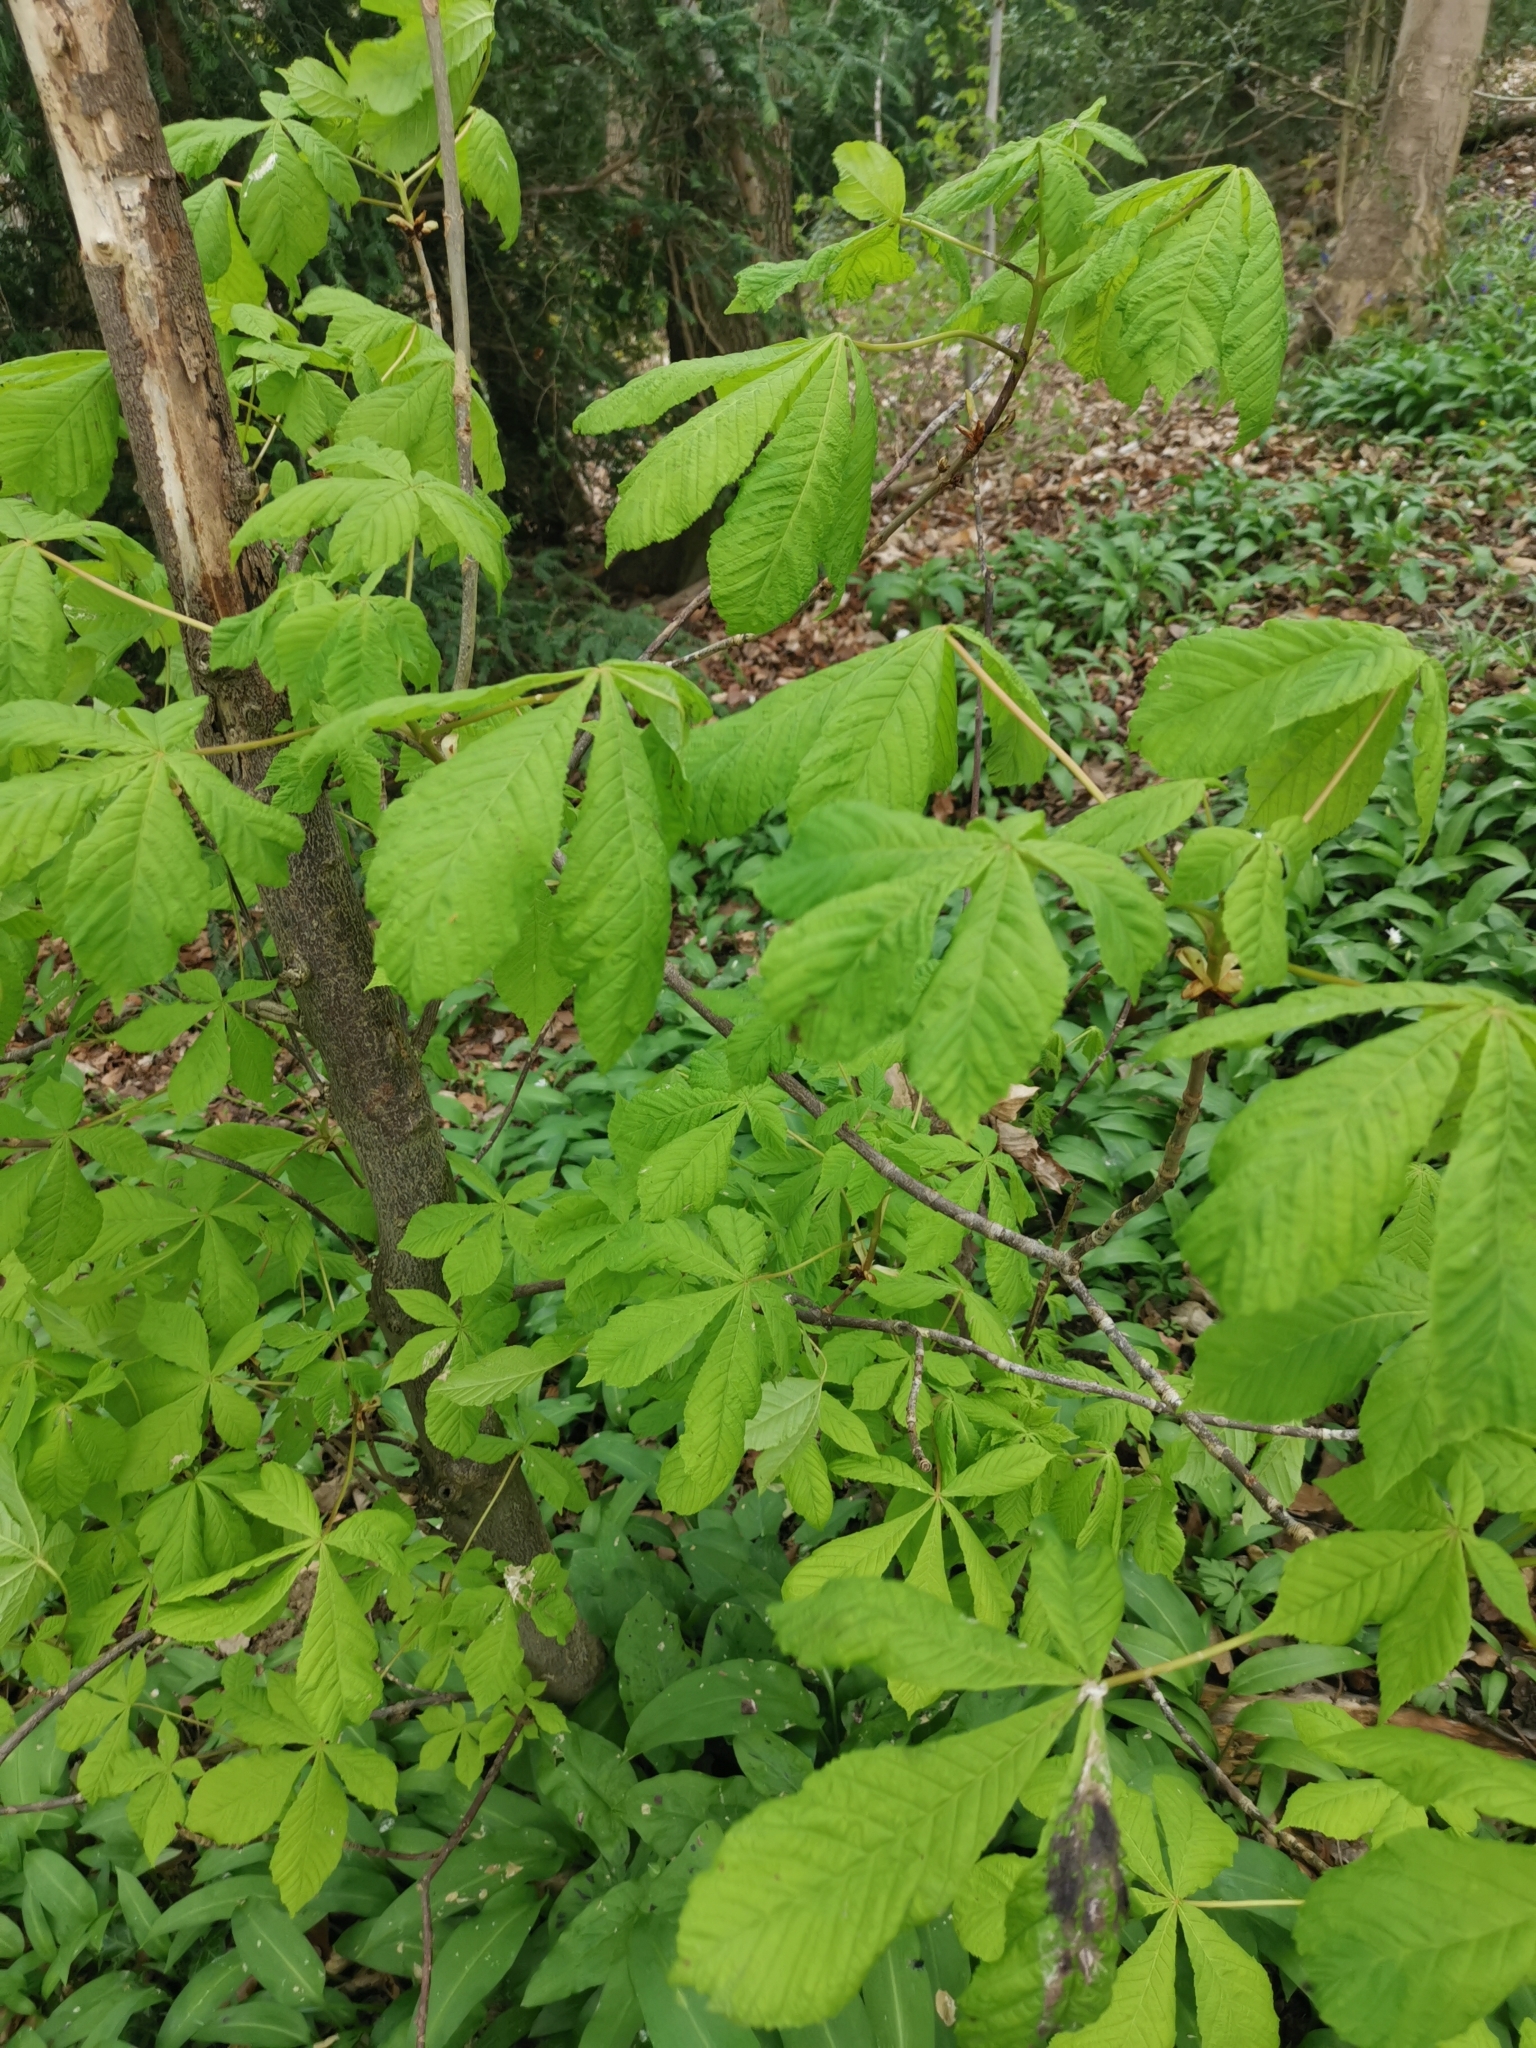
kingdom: Plantae
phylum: Tracheophyta
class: Magnoliopsida
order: Sapindales
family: Sapindaceae
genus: Aesculus
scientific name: Aesculus hippocastanum
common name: Horse-chestnut
